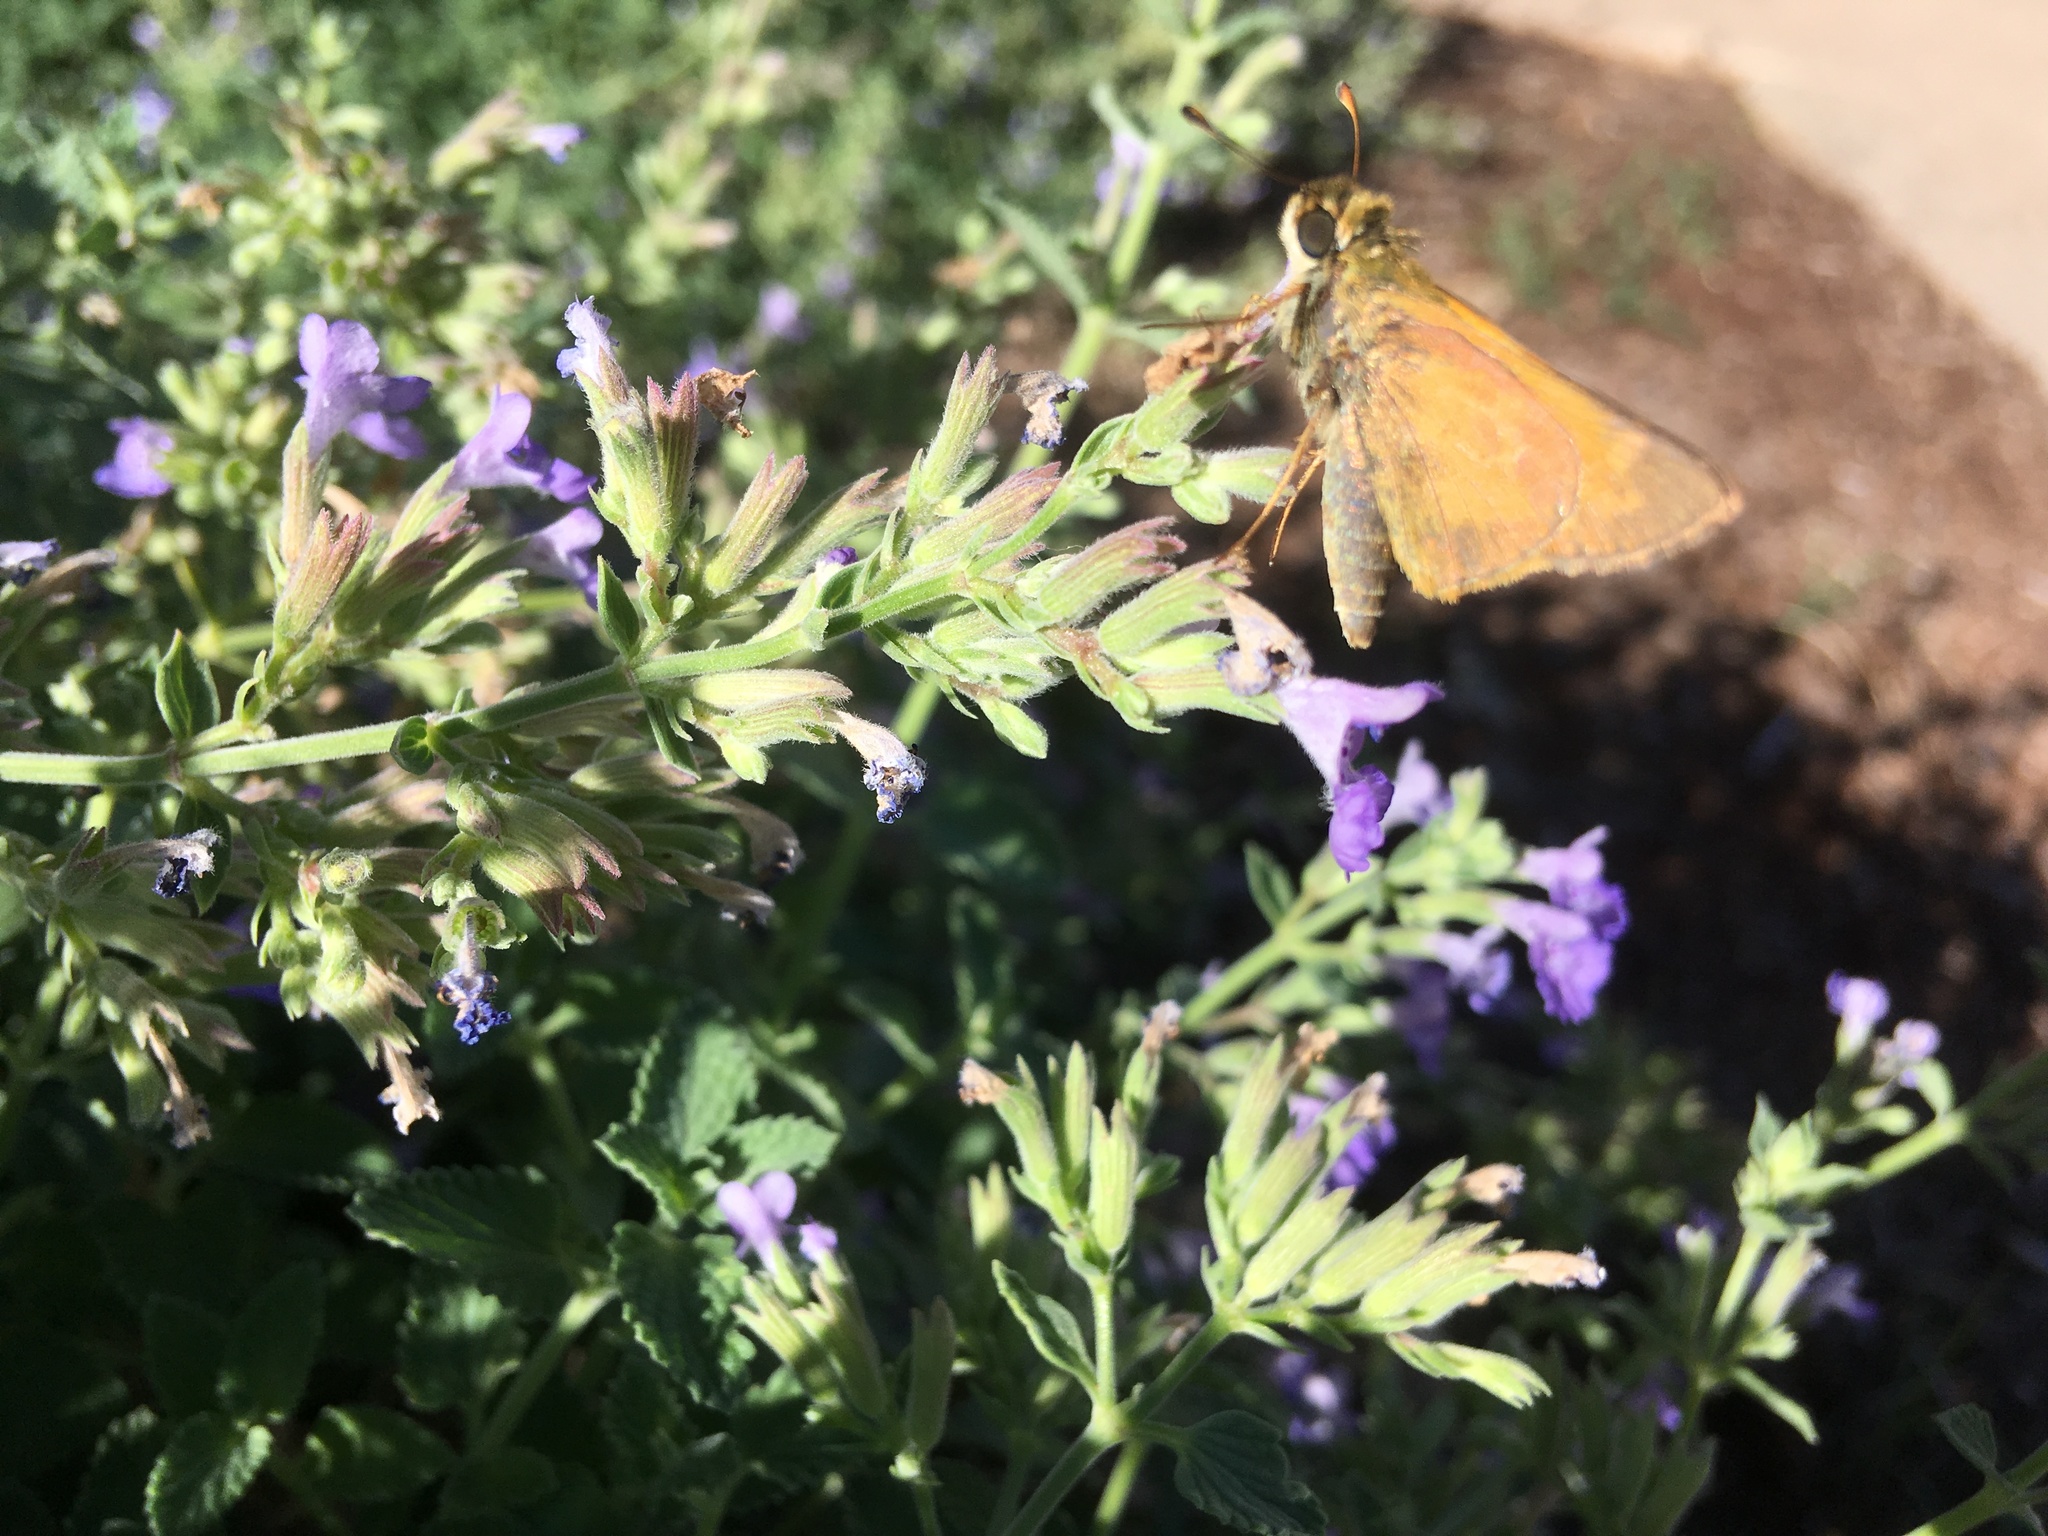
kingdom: Animalia
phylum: Arthropoda
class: Insecta
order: Lepidoptera
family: Hesperiidae
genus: Atalopedes
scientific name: Atalopedes
